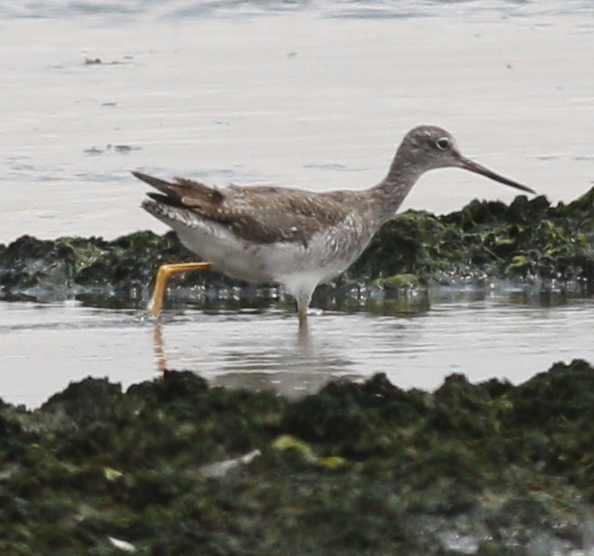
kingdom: Animalia
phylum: Chordata
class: Aves
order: Charadriiformes
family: Scolopacidae
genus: Tringa
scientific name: Tringa melanoleuca
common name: Greater yellowlegs
